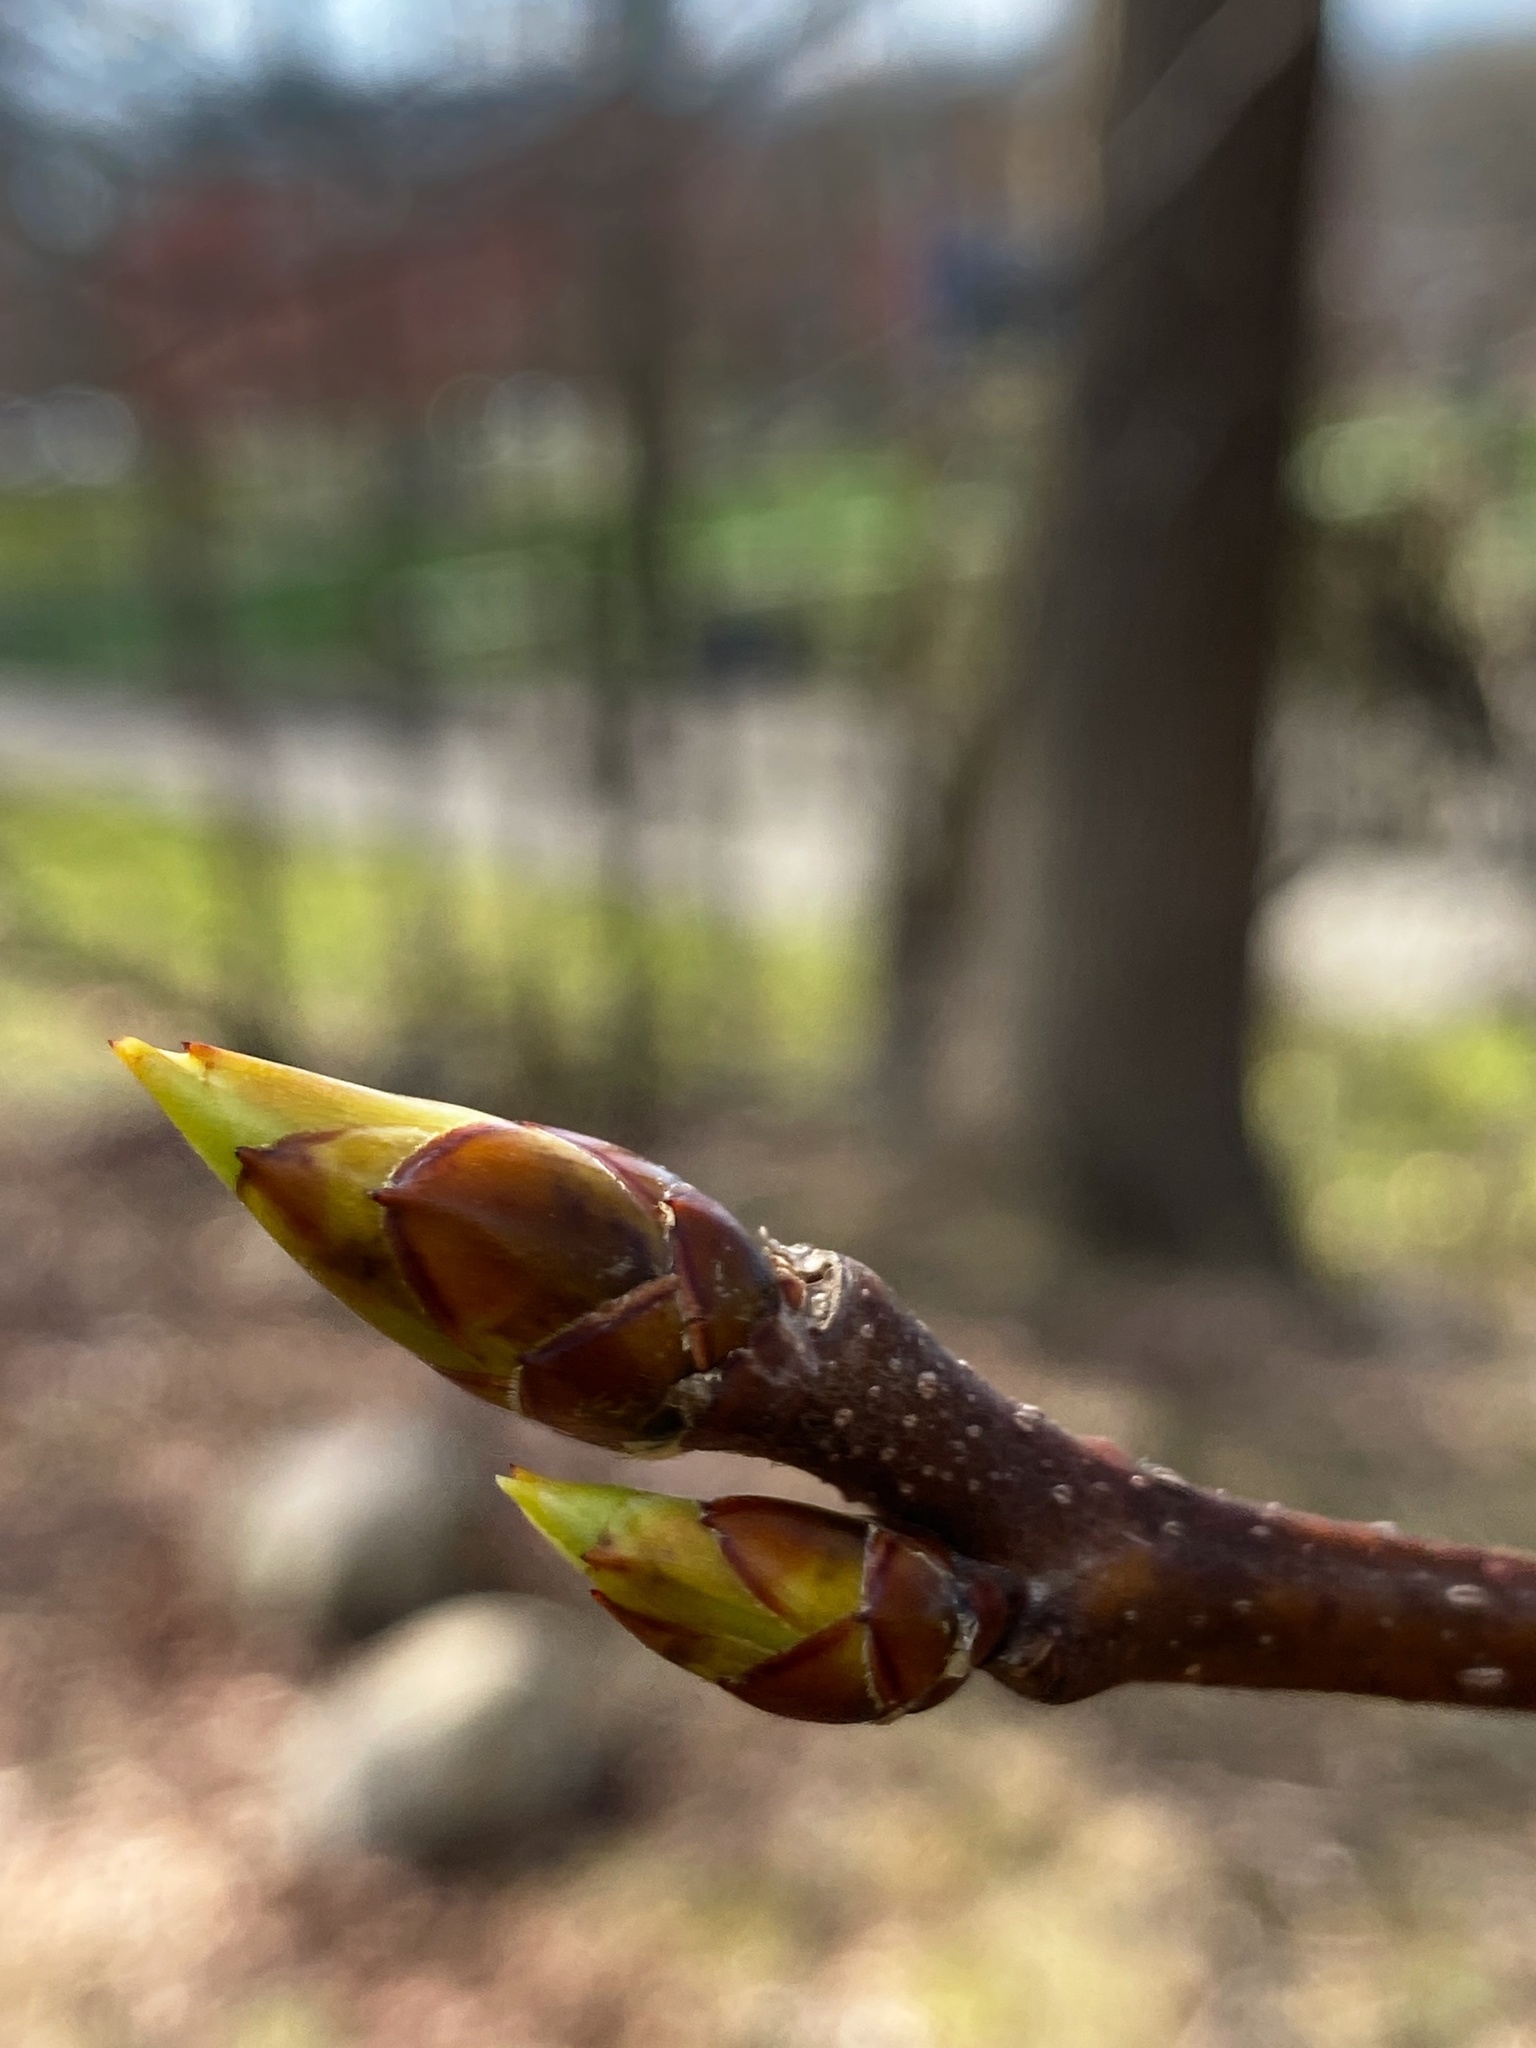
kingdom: Plantae
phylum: Tracheophyta
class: Magnoliopsida
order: Saxifragales
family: Altingiaceae
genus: Liquidambar
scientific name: Liquidambar styraciflua
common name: Sweet gum
